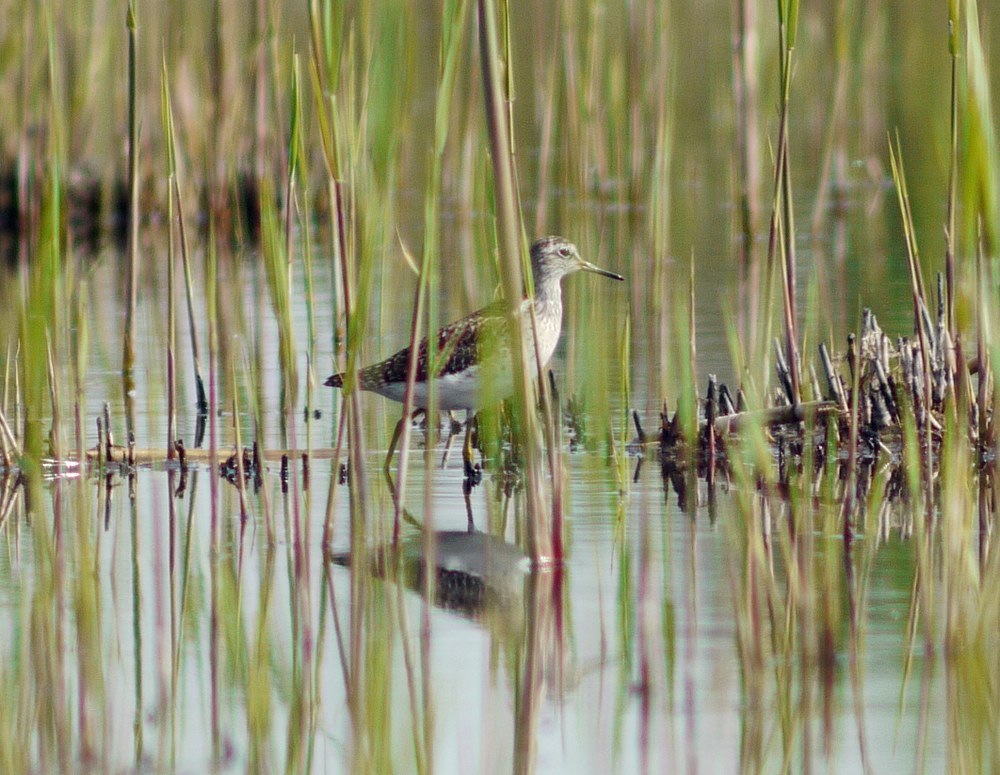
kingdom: Animalia
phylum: Chordata
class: Aves
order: Charadriiformes
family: Scolopacidae
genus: Tringa
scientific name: Tringa glareola
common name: Wood sandpiper
